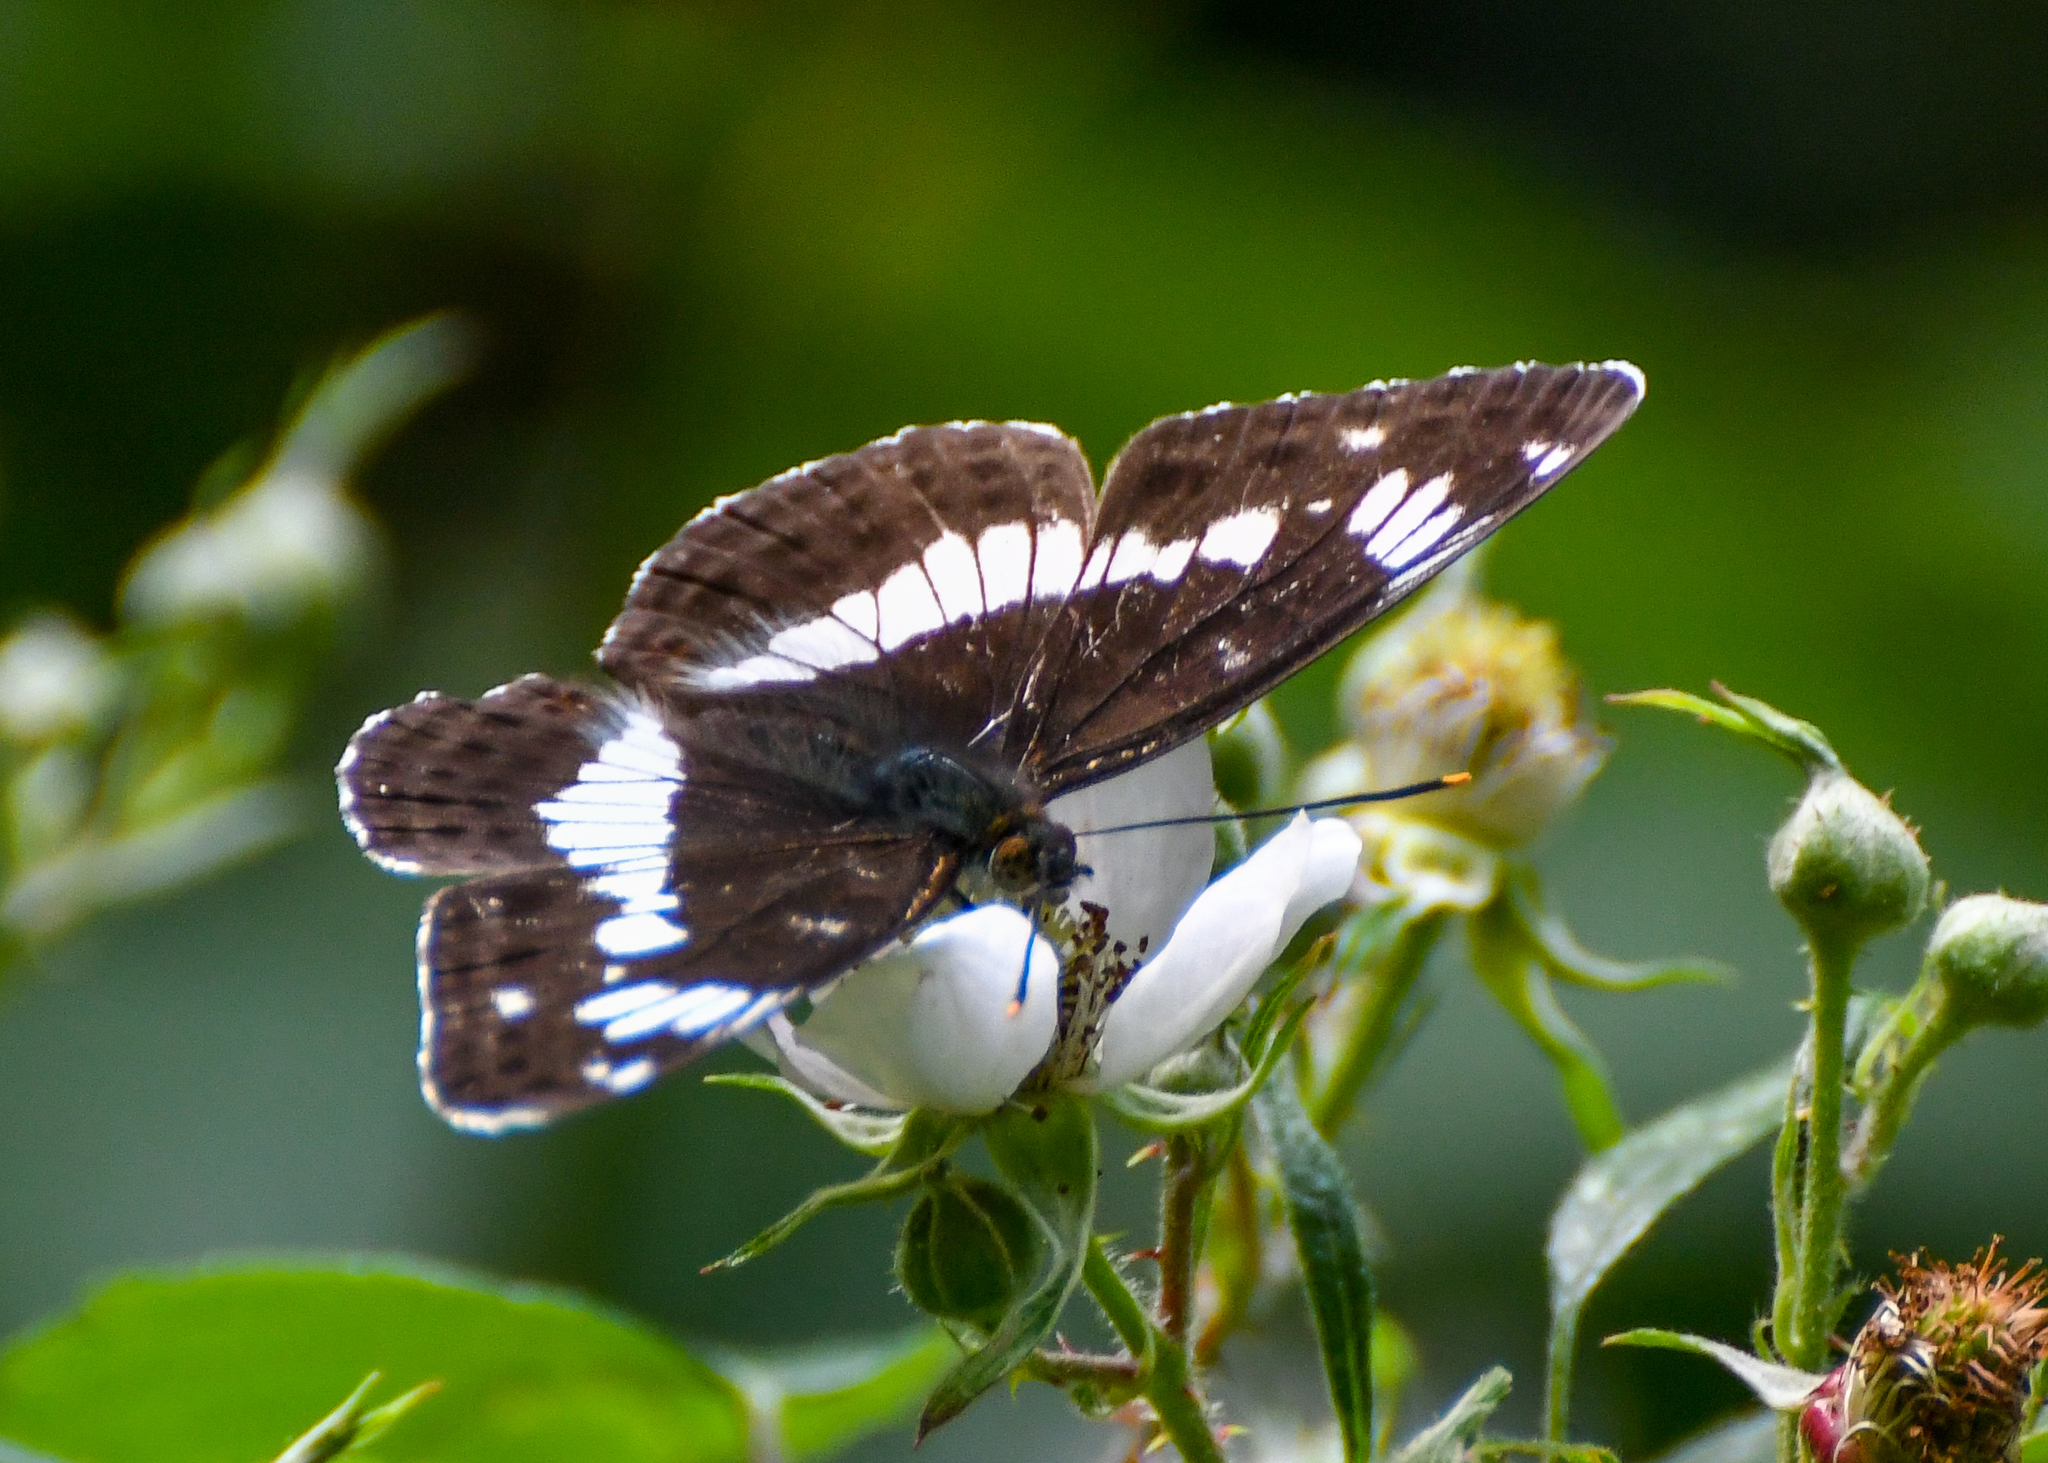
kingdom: Animalia
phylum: Arthropoda
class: Insecta
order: Lepidoptera
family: Nymphalidae
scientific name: Nymphalidae
